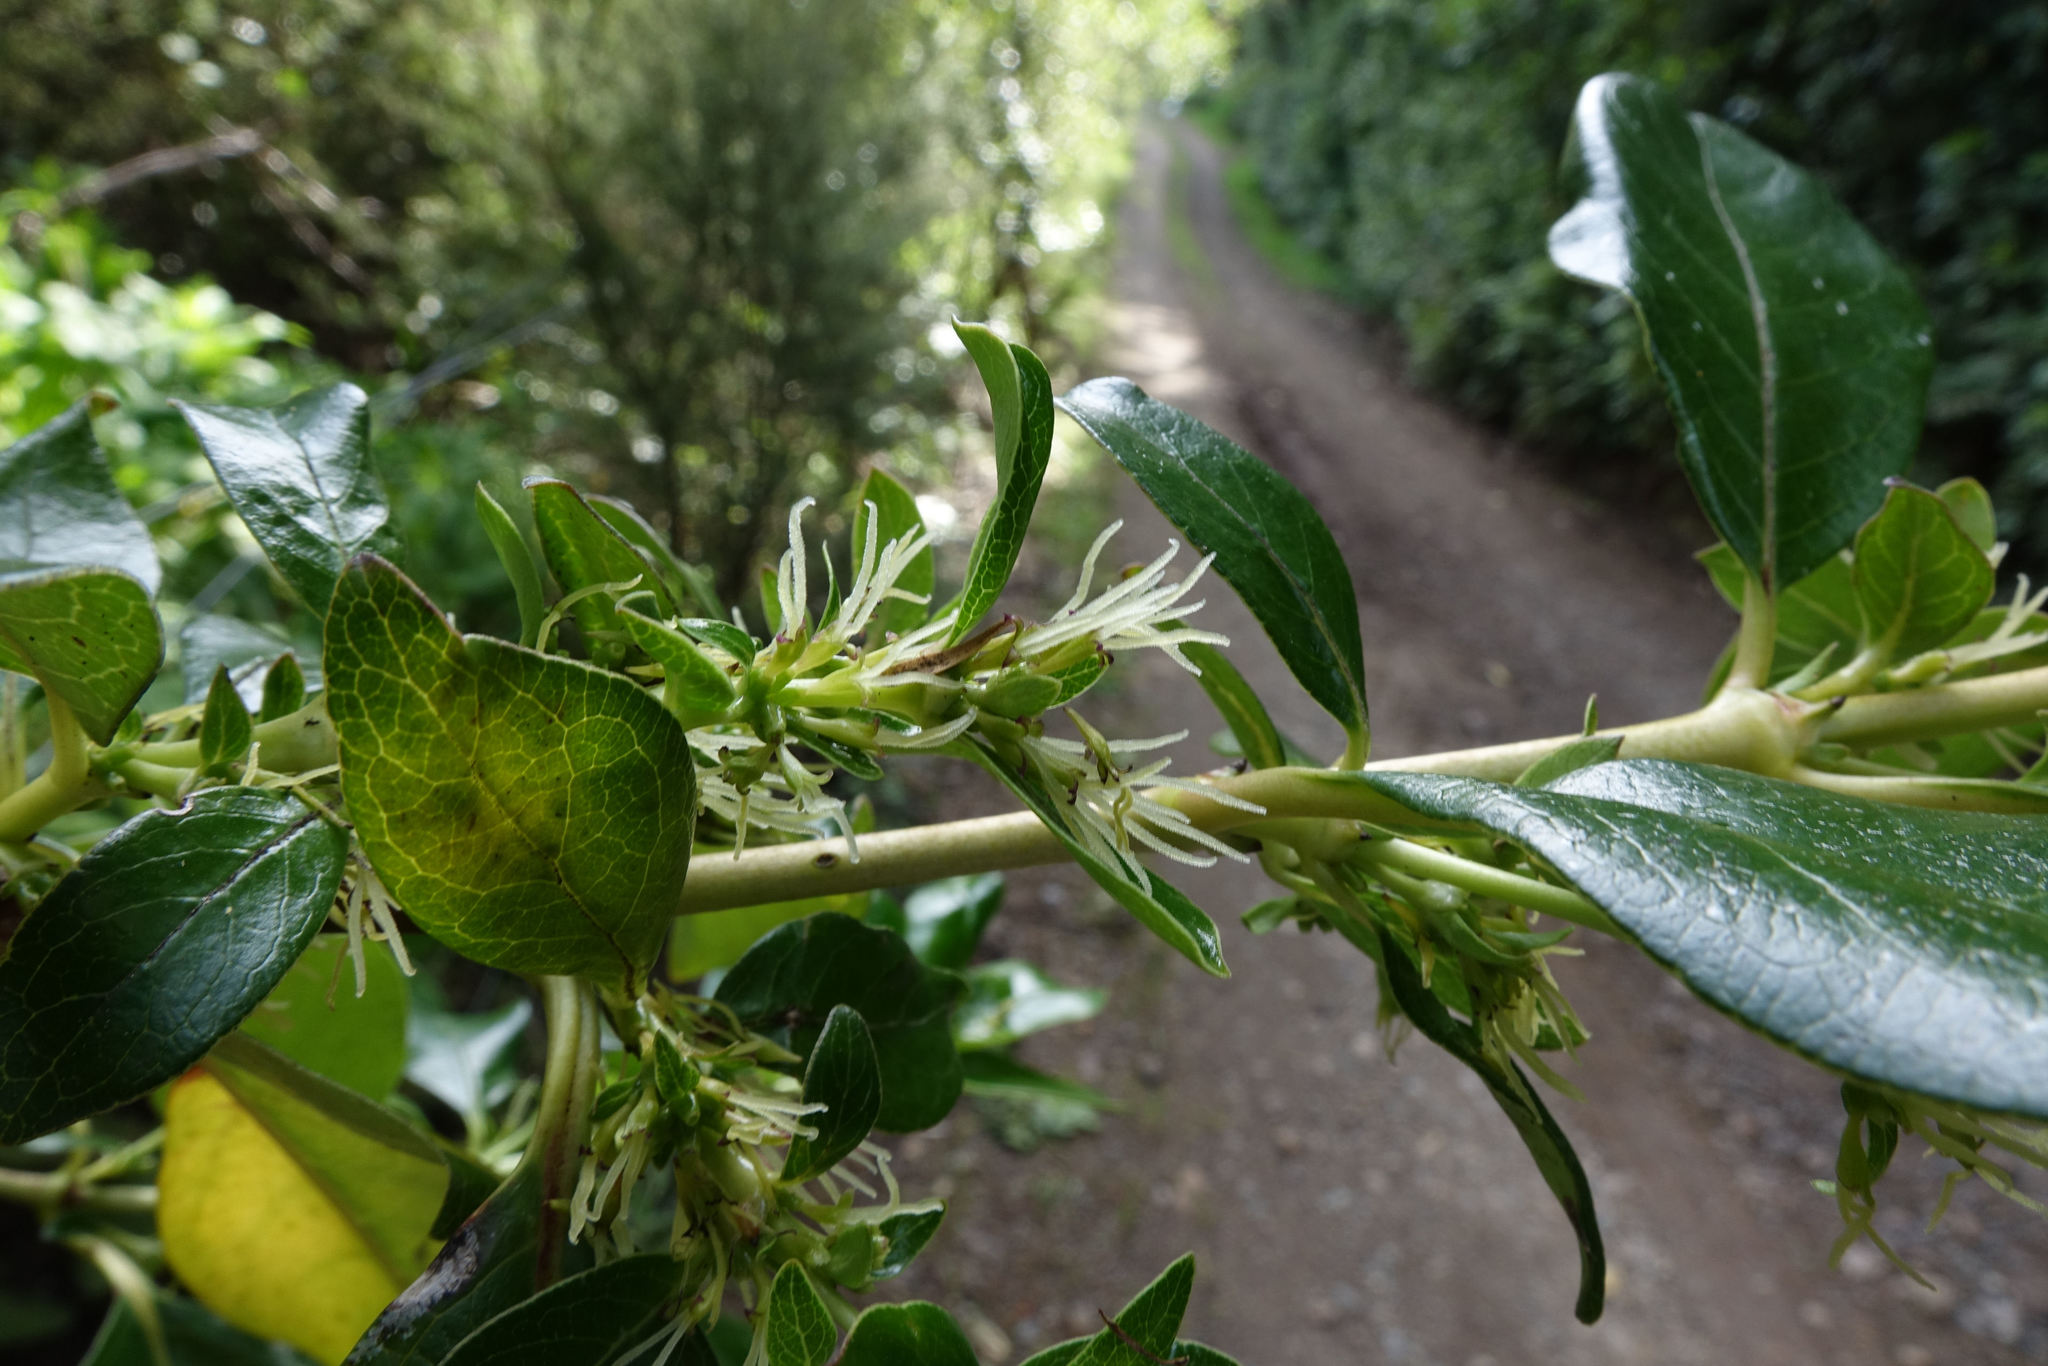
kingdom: Plantae
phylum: Tracheophyta
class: Magnoliopsida
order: Gentianales
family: Rubiaceae
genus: Coprosma
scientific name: Coprosma robusta
